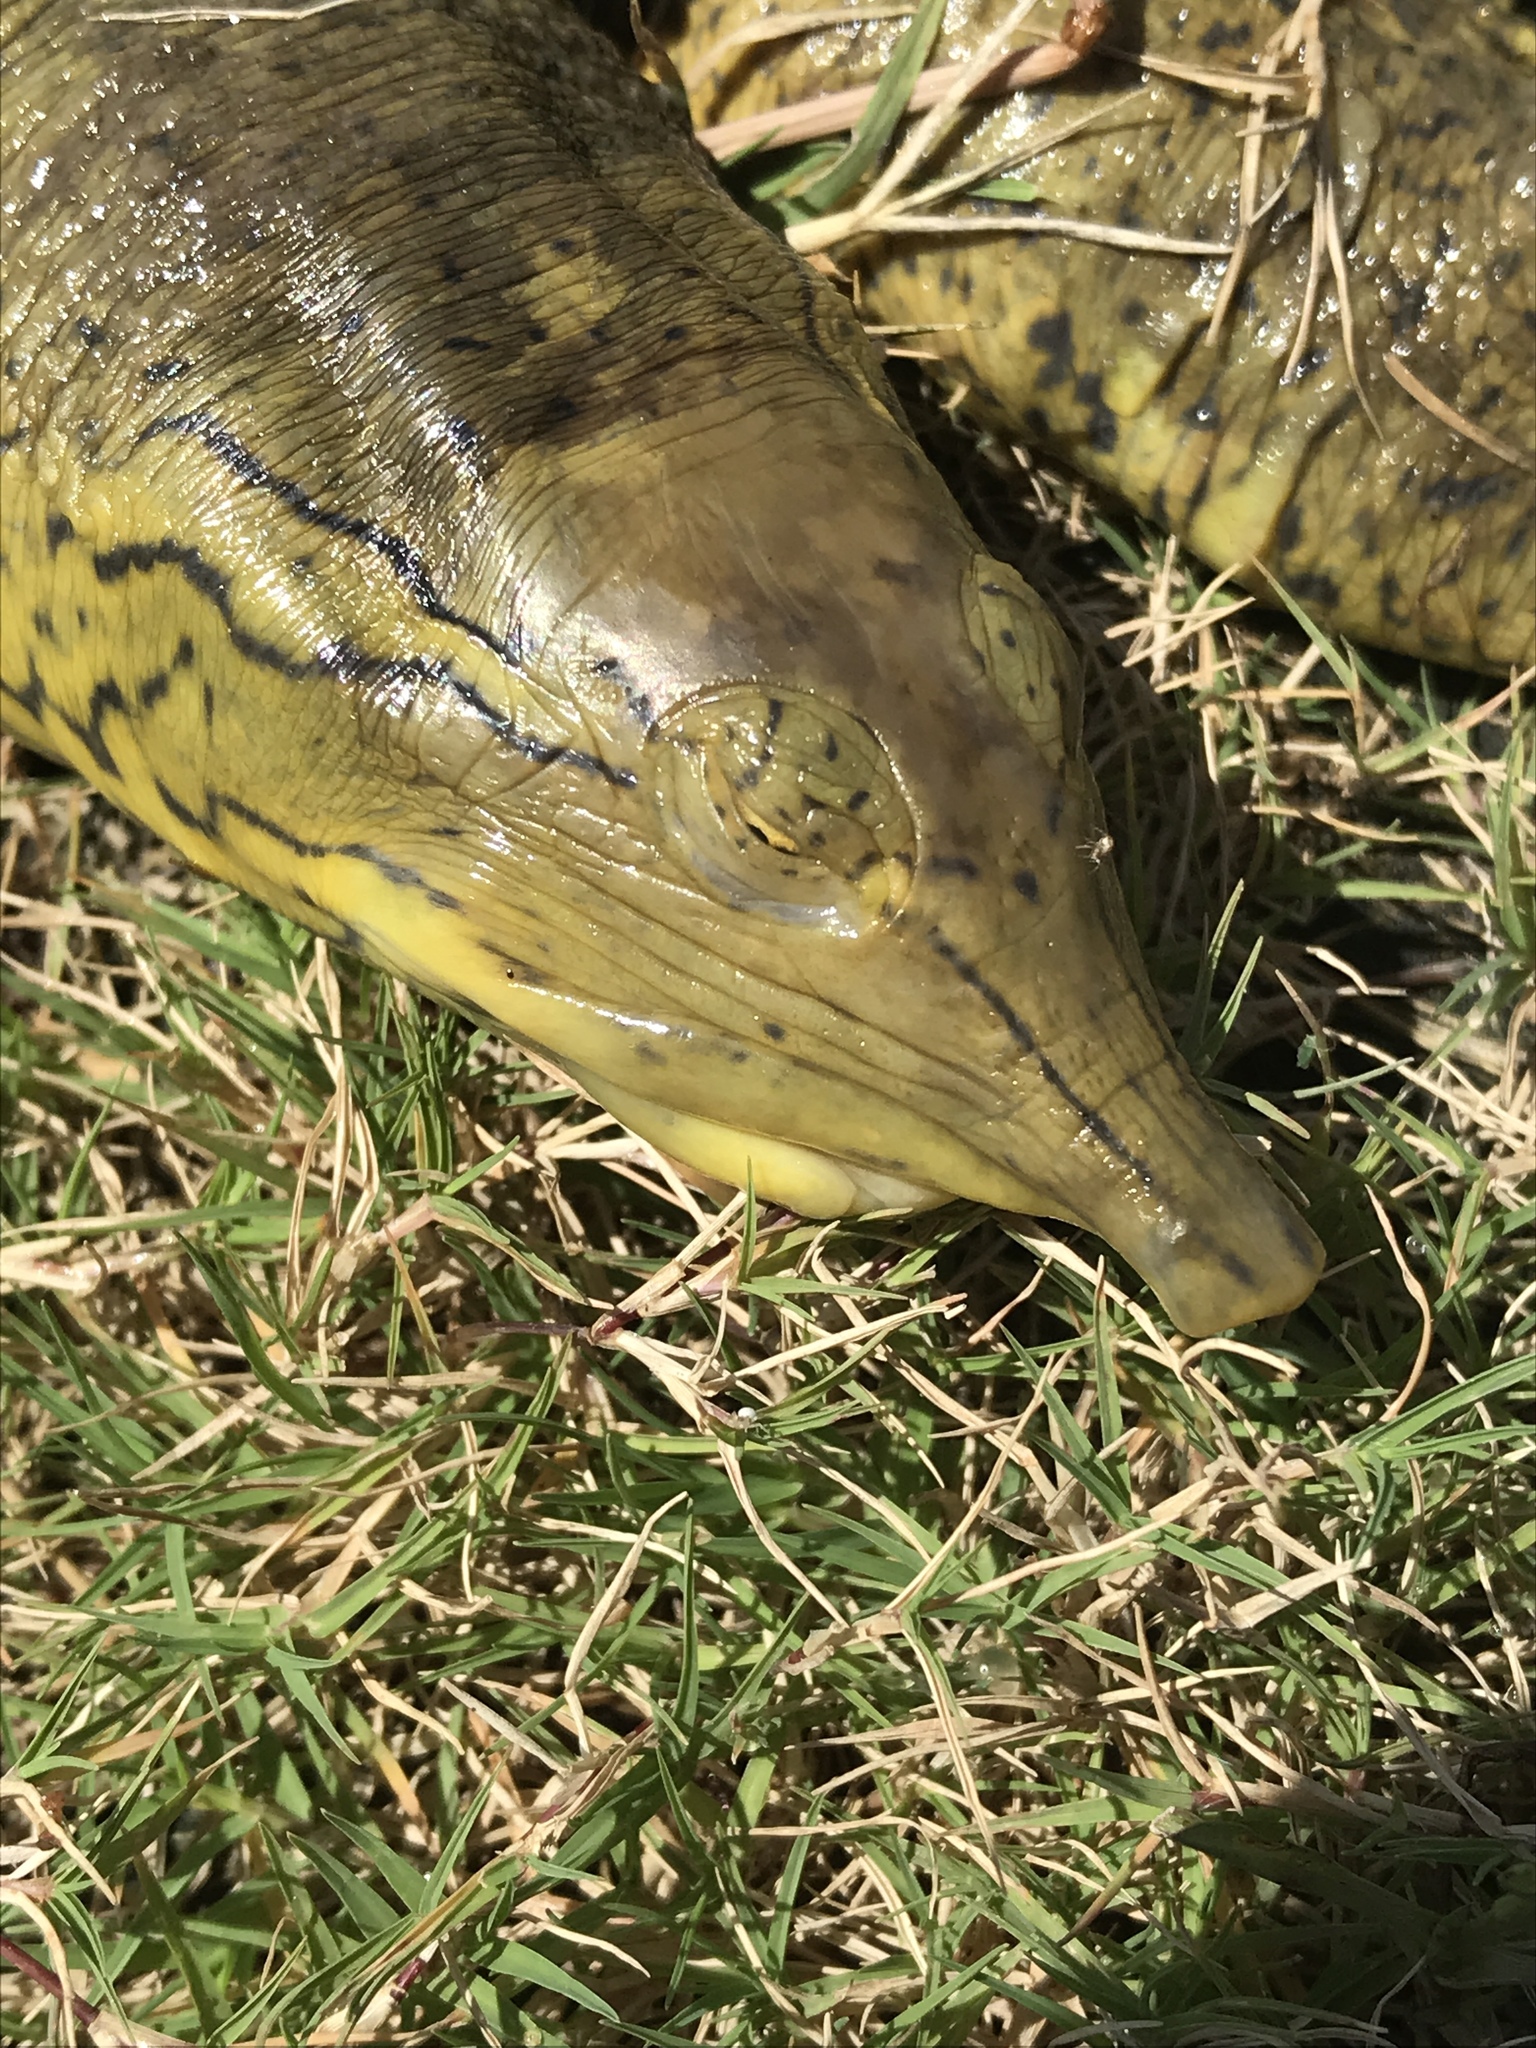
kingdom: Animalia
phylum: Chordata
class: Testudines
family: Trionychidae
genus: Apalone
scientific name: Apalone spinifera
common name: Spiny softshell turtle
